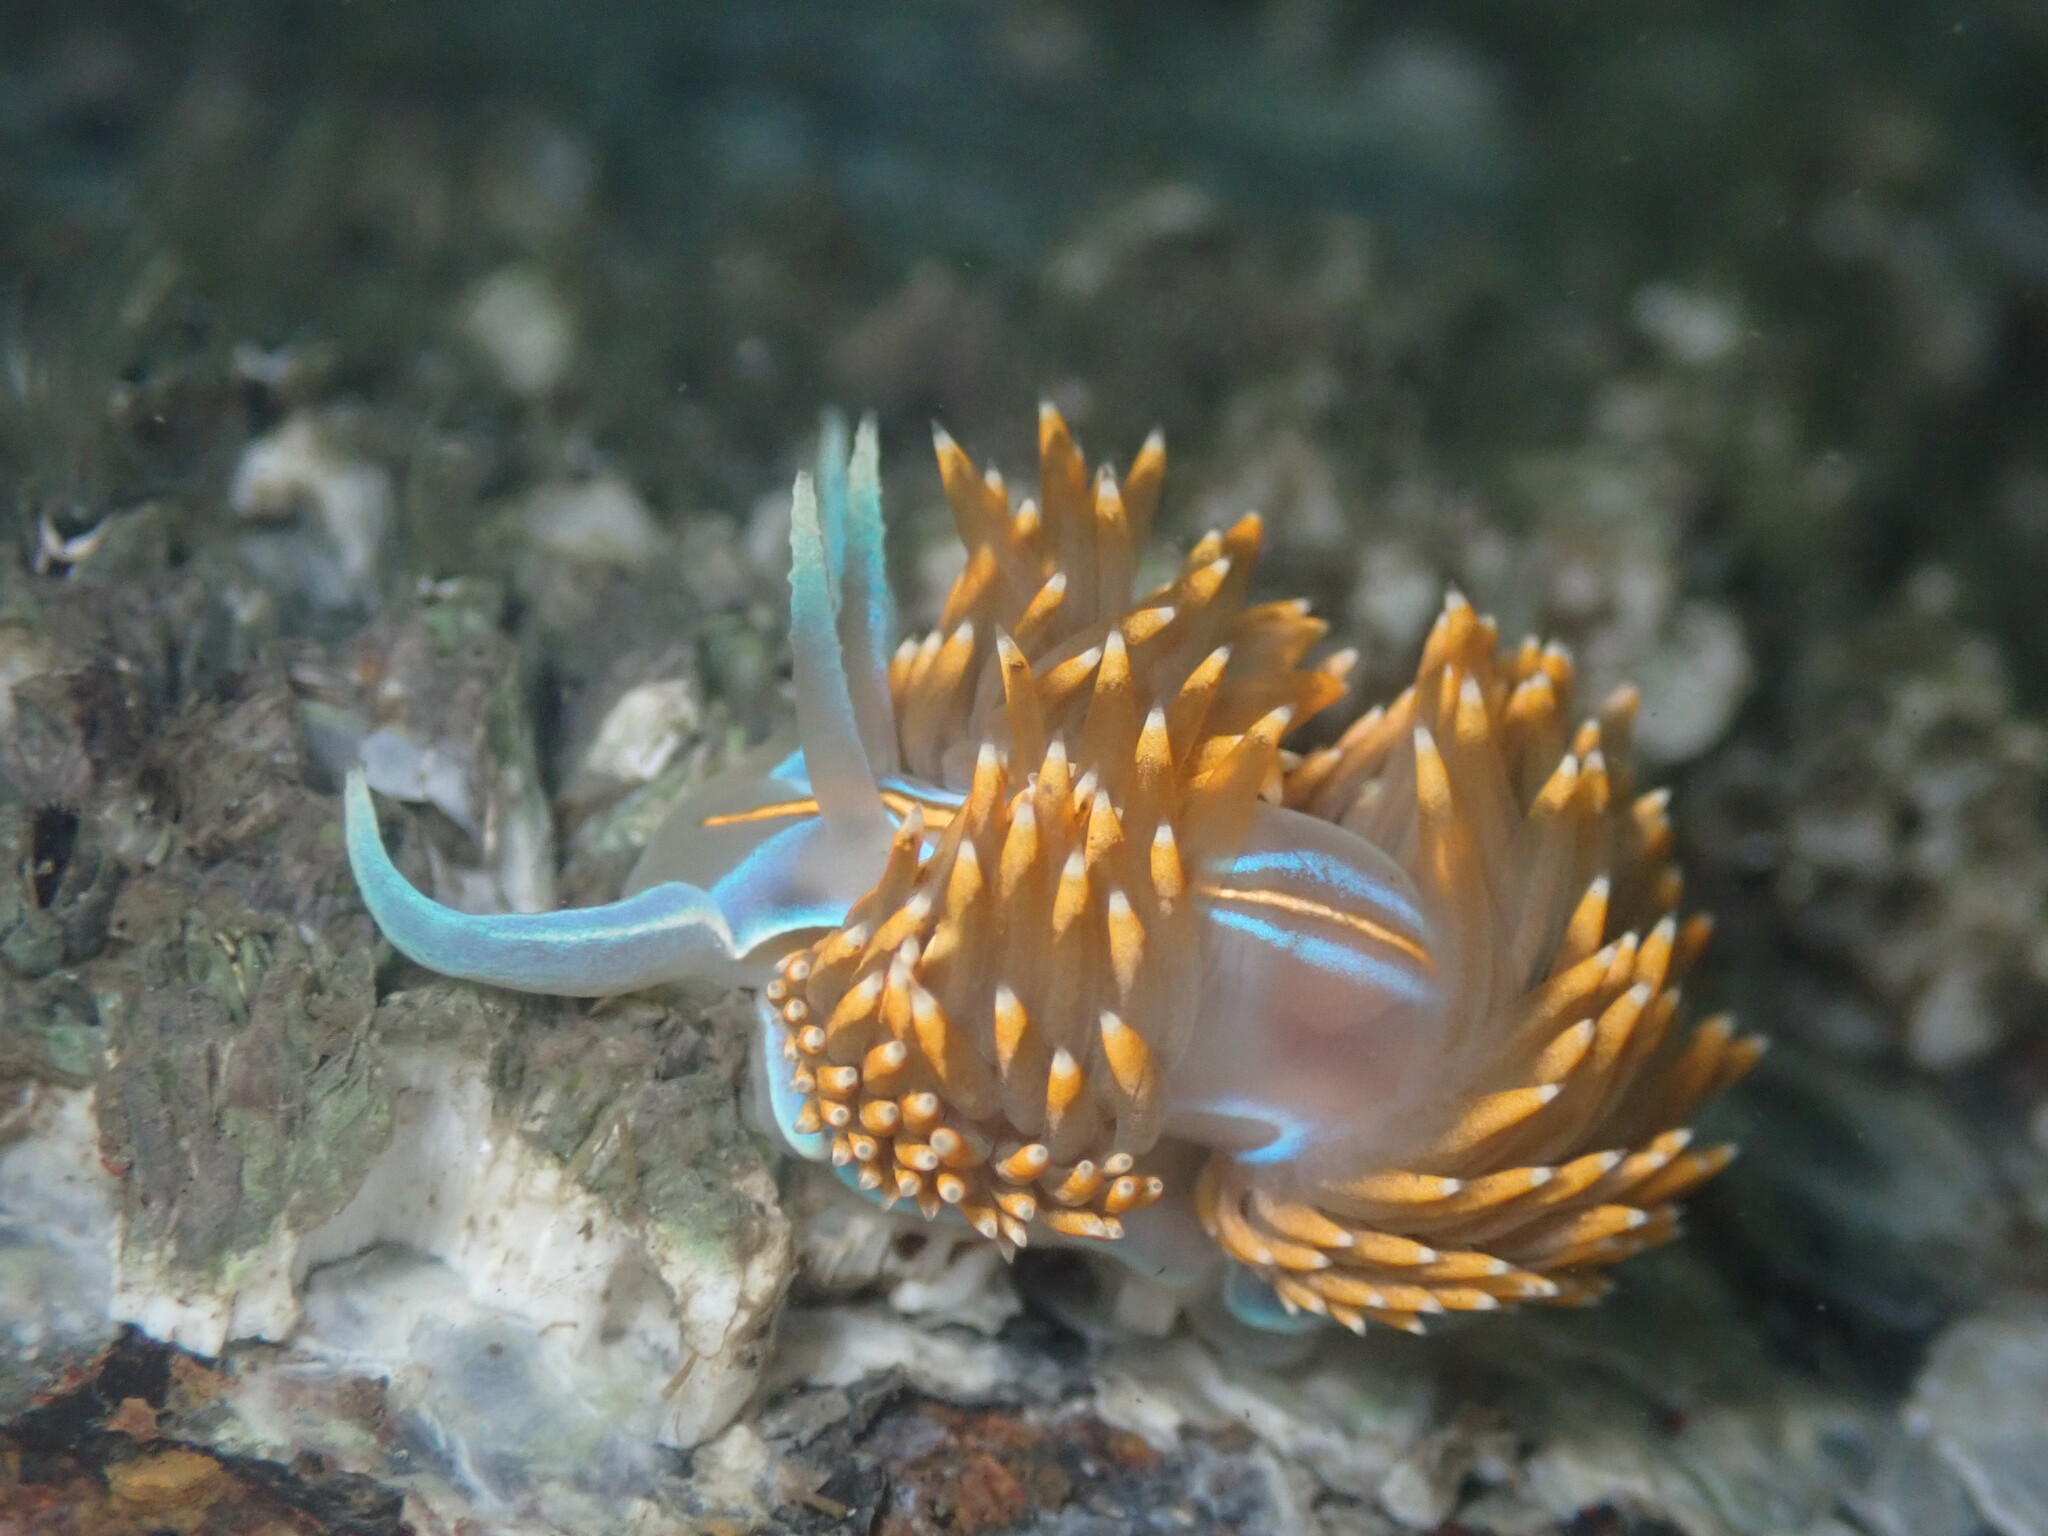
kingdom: Animalia
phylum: Mollusca
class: Gastropoda
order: Nudibranchia
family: Myrrhinidae
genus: Hermissenda
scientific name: Hermissenda opalescens
